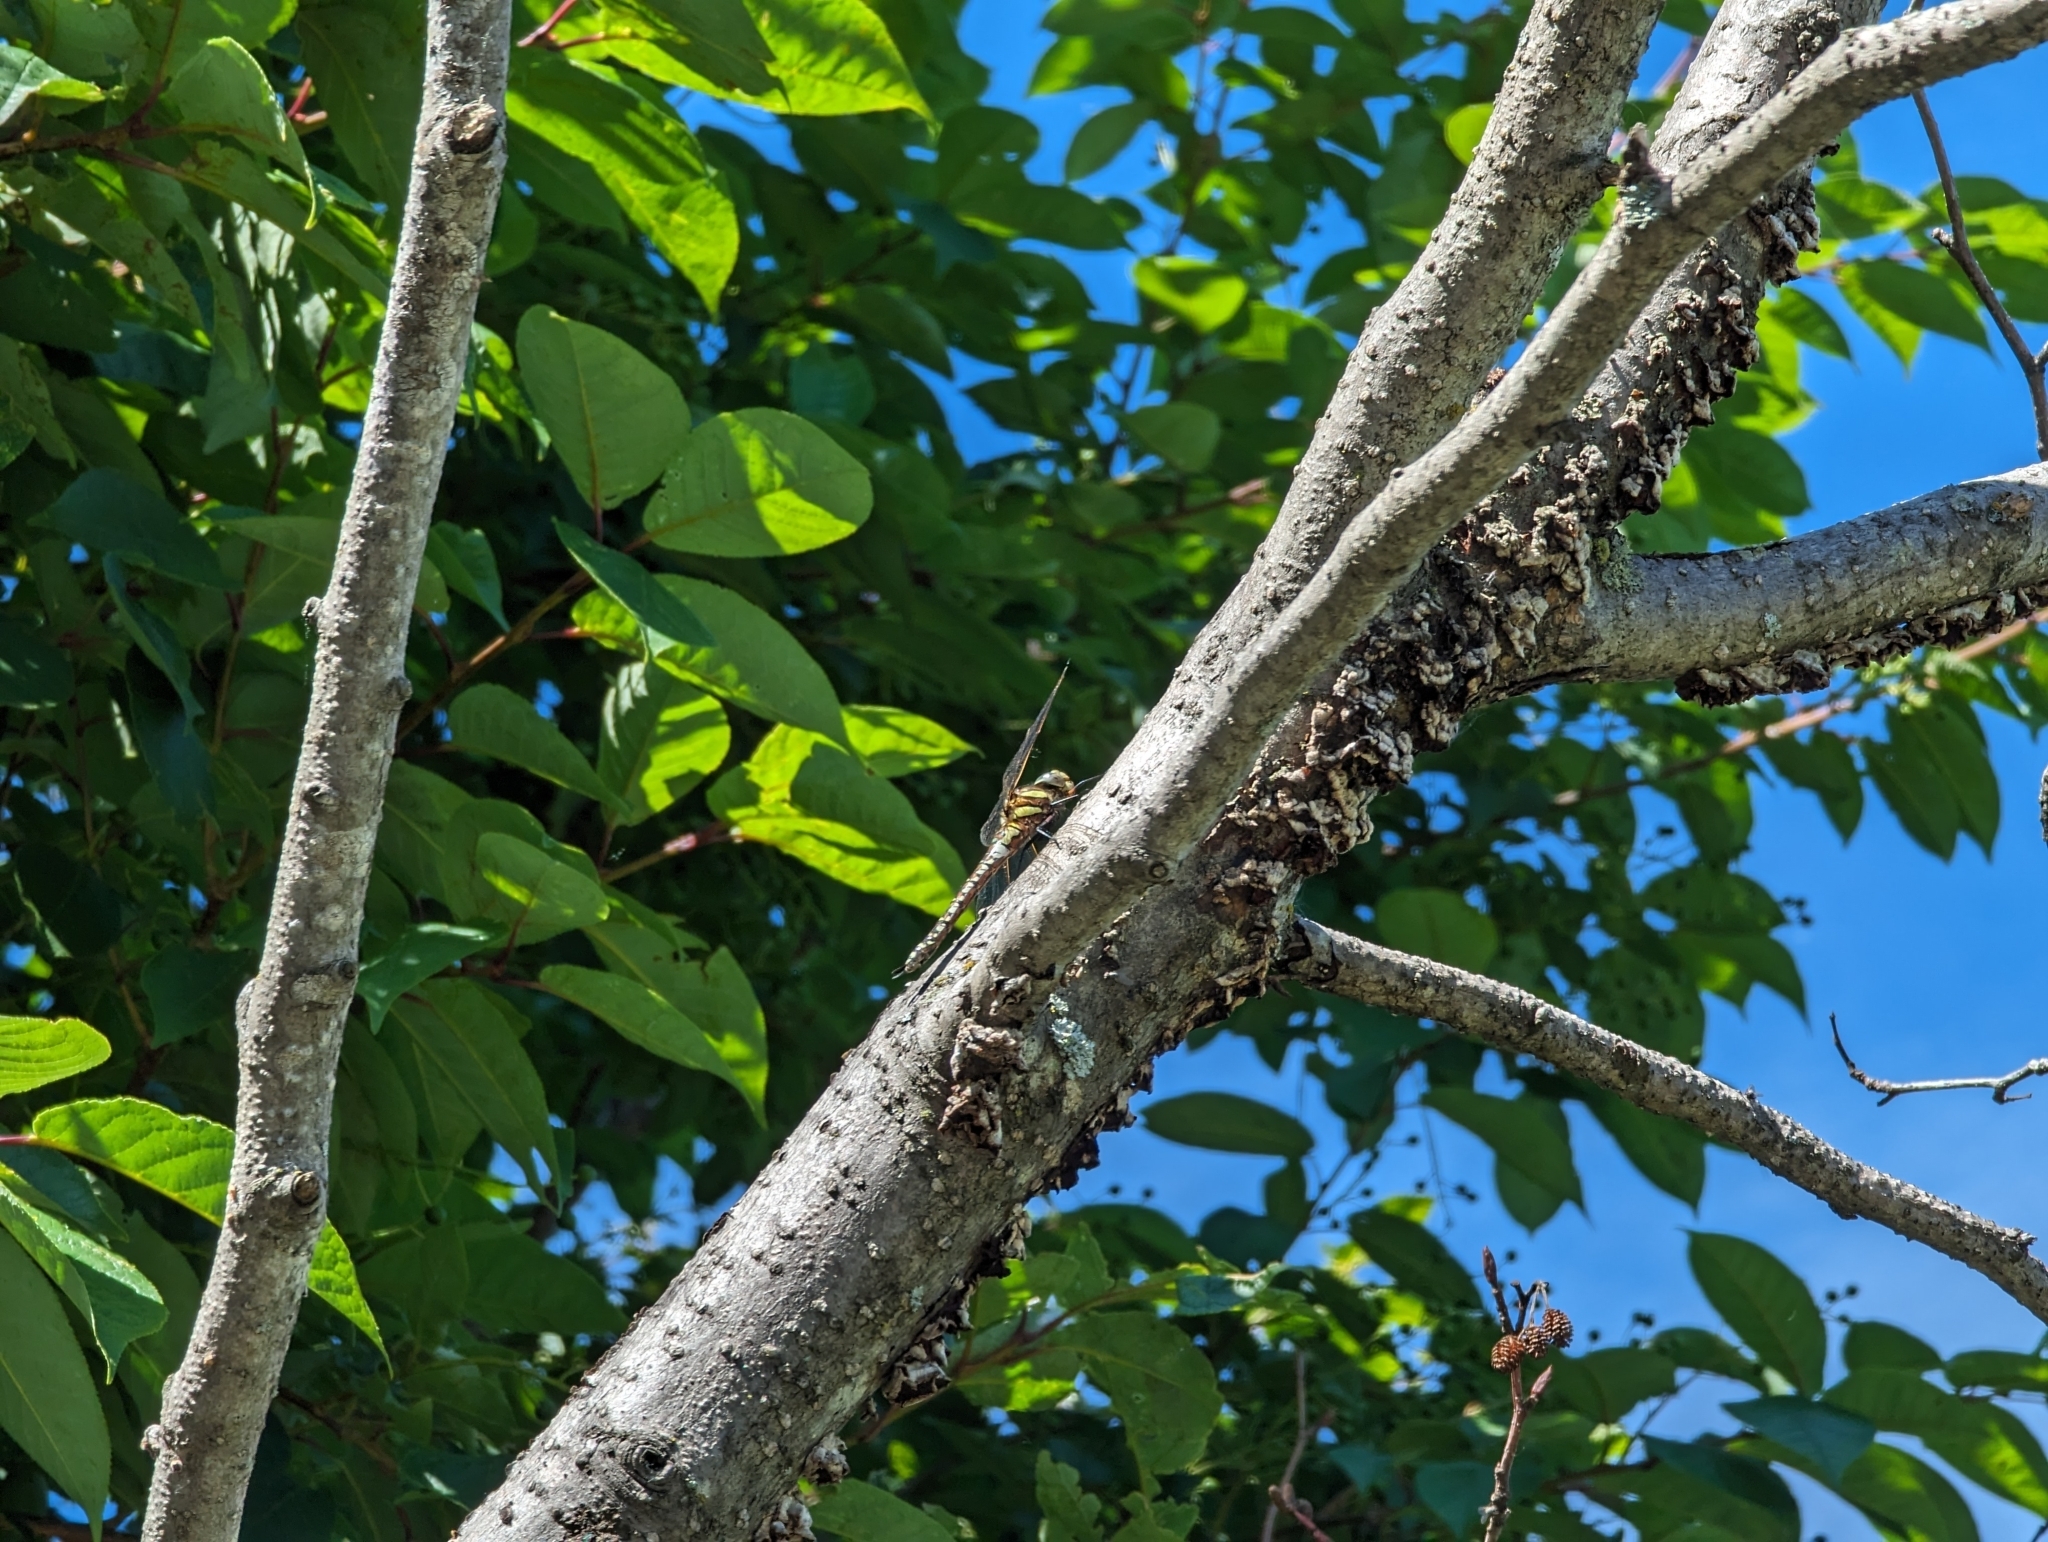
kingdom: Animalia
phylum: Arthropoda
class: Insecta
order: Odonata
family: Aeshnidae
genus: Aeshna
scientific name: Aeshna juncea
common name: Moorland hawker
